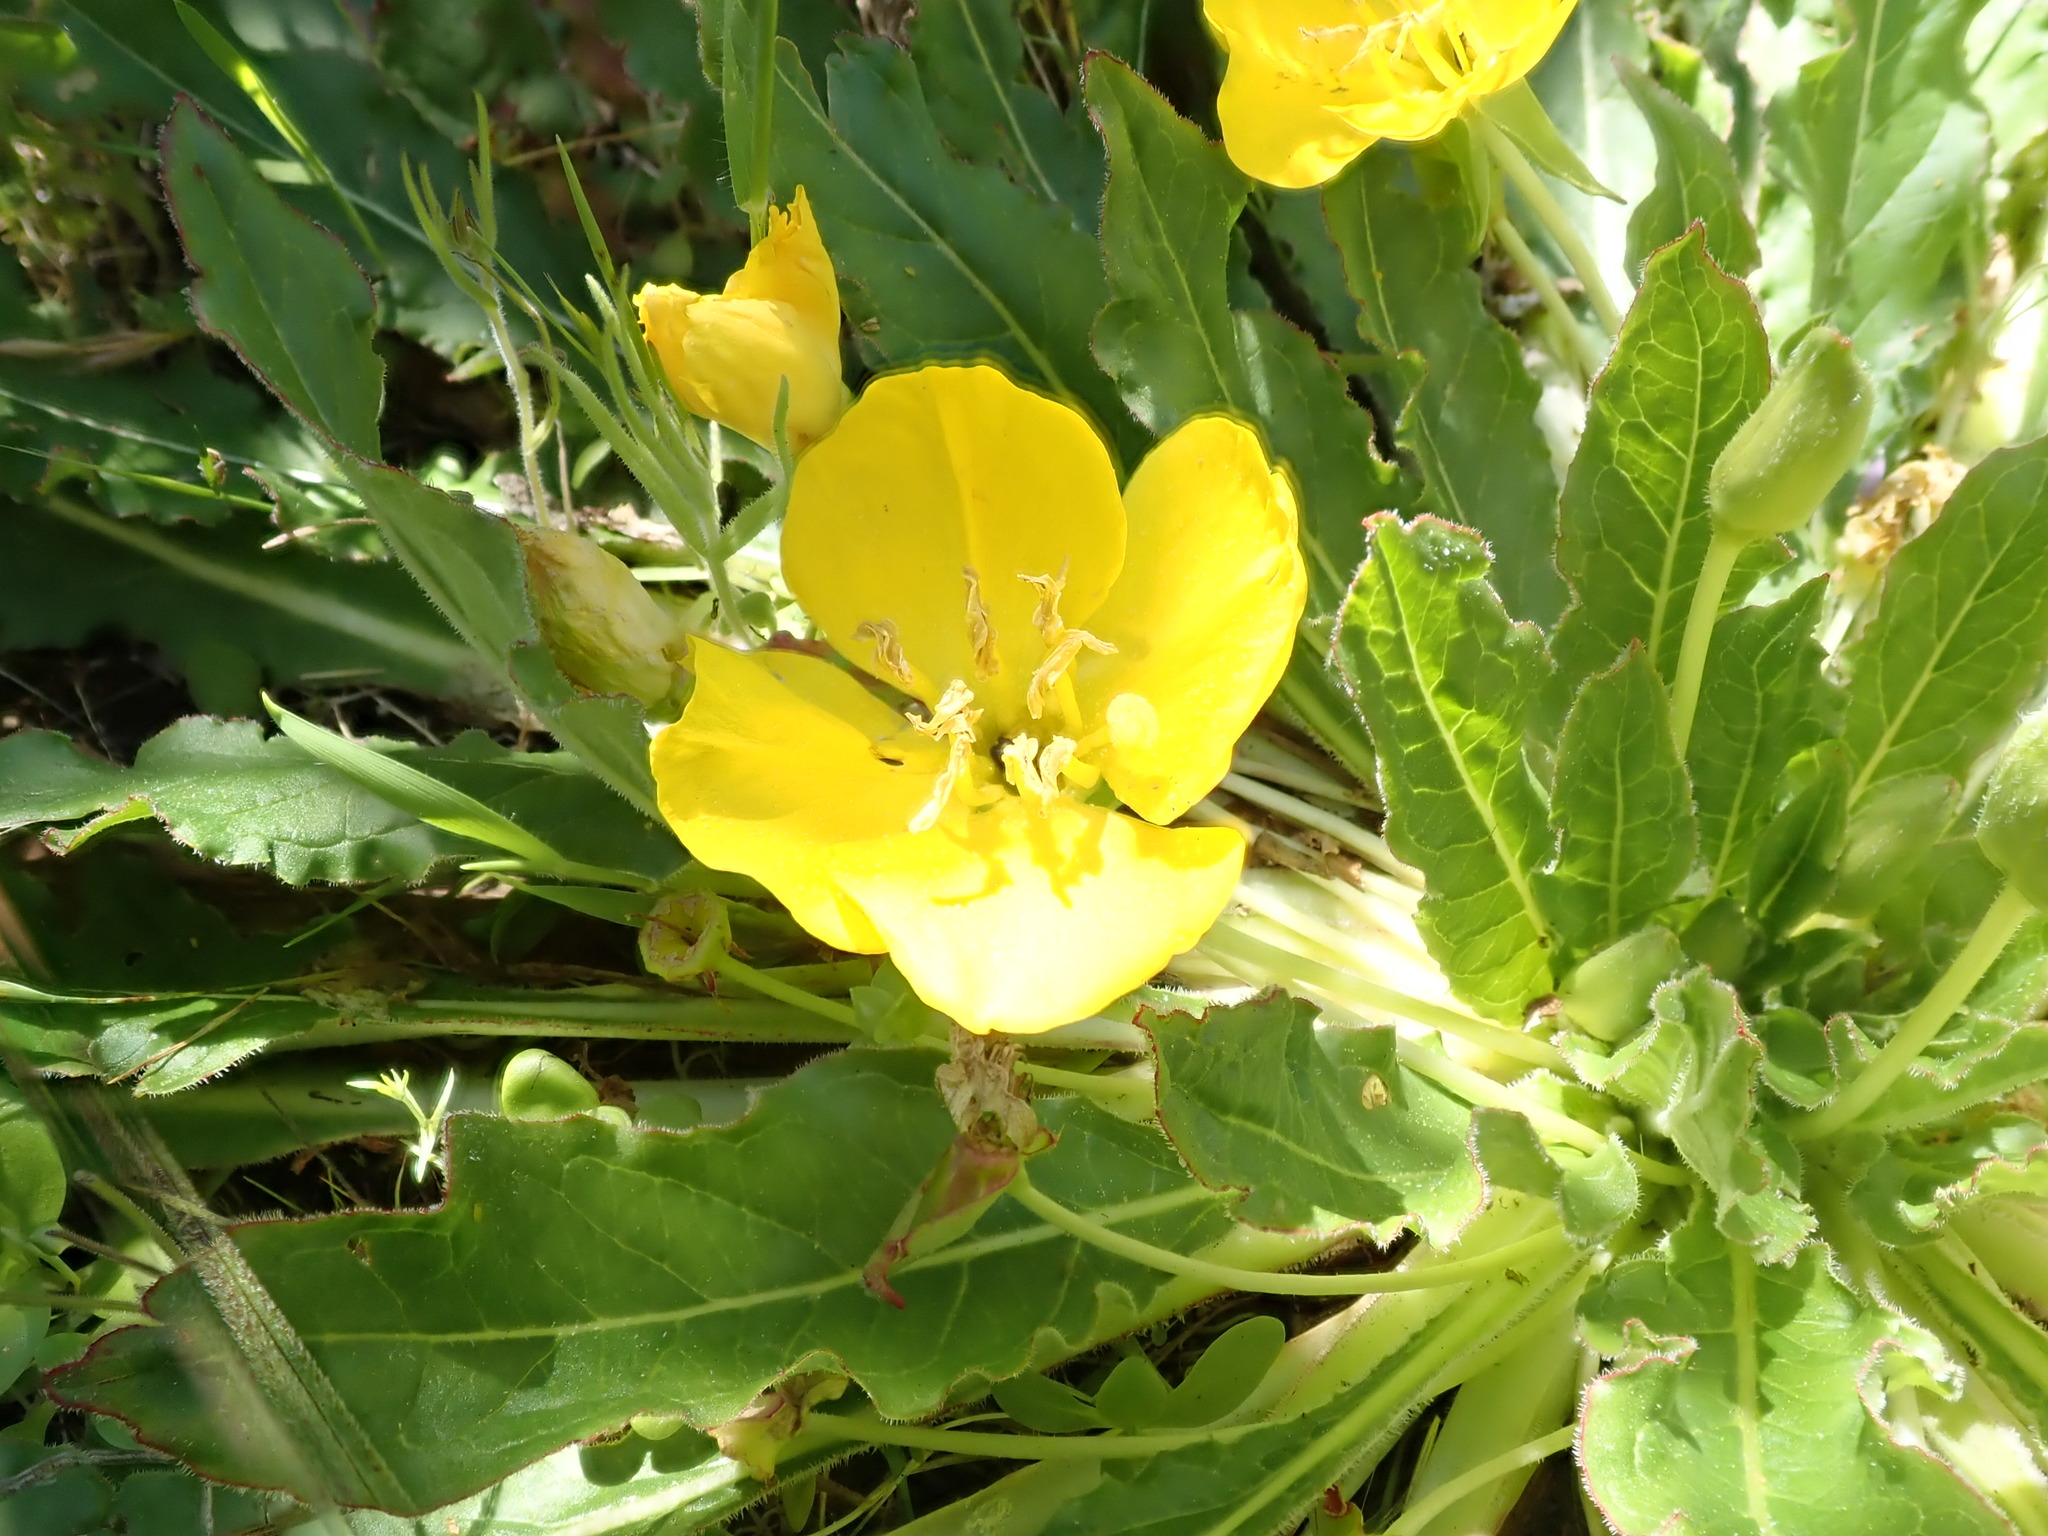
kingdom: Plantae
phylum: Tracheophyta
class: Magnoliopsida
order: Myrtales
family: Onagraceae
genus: Taraxia
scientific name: Taraxia ovata
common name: Goldeneggs
